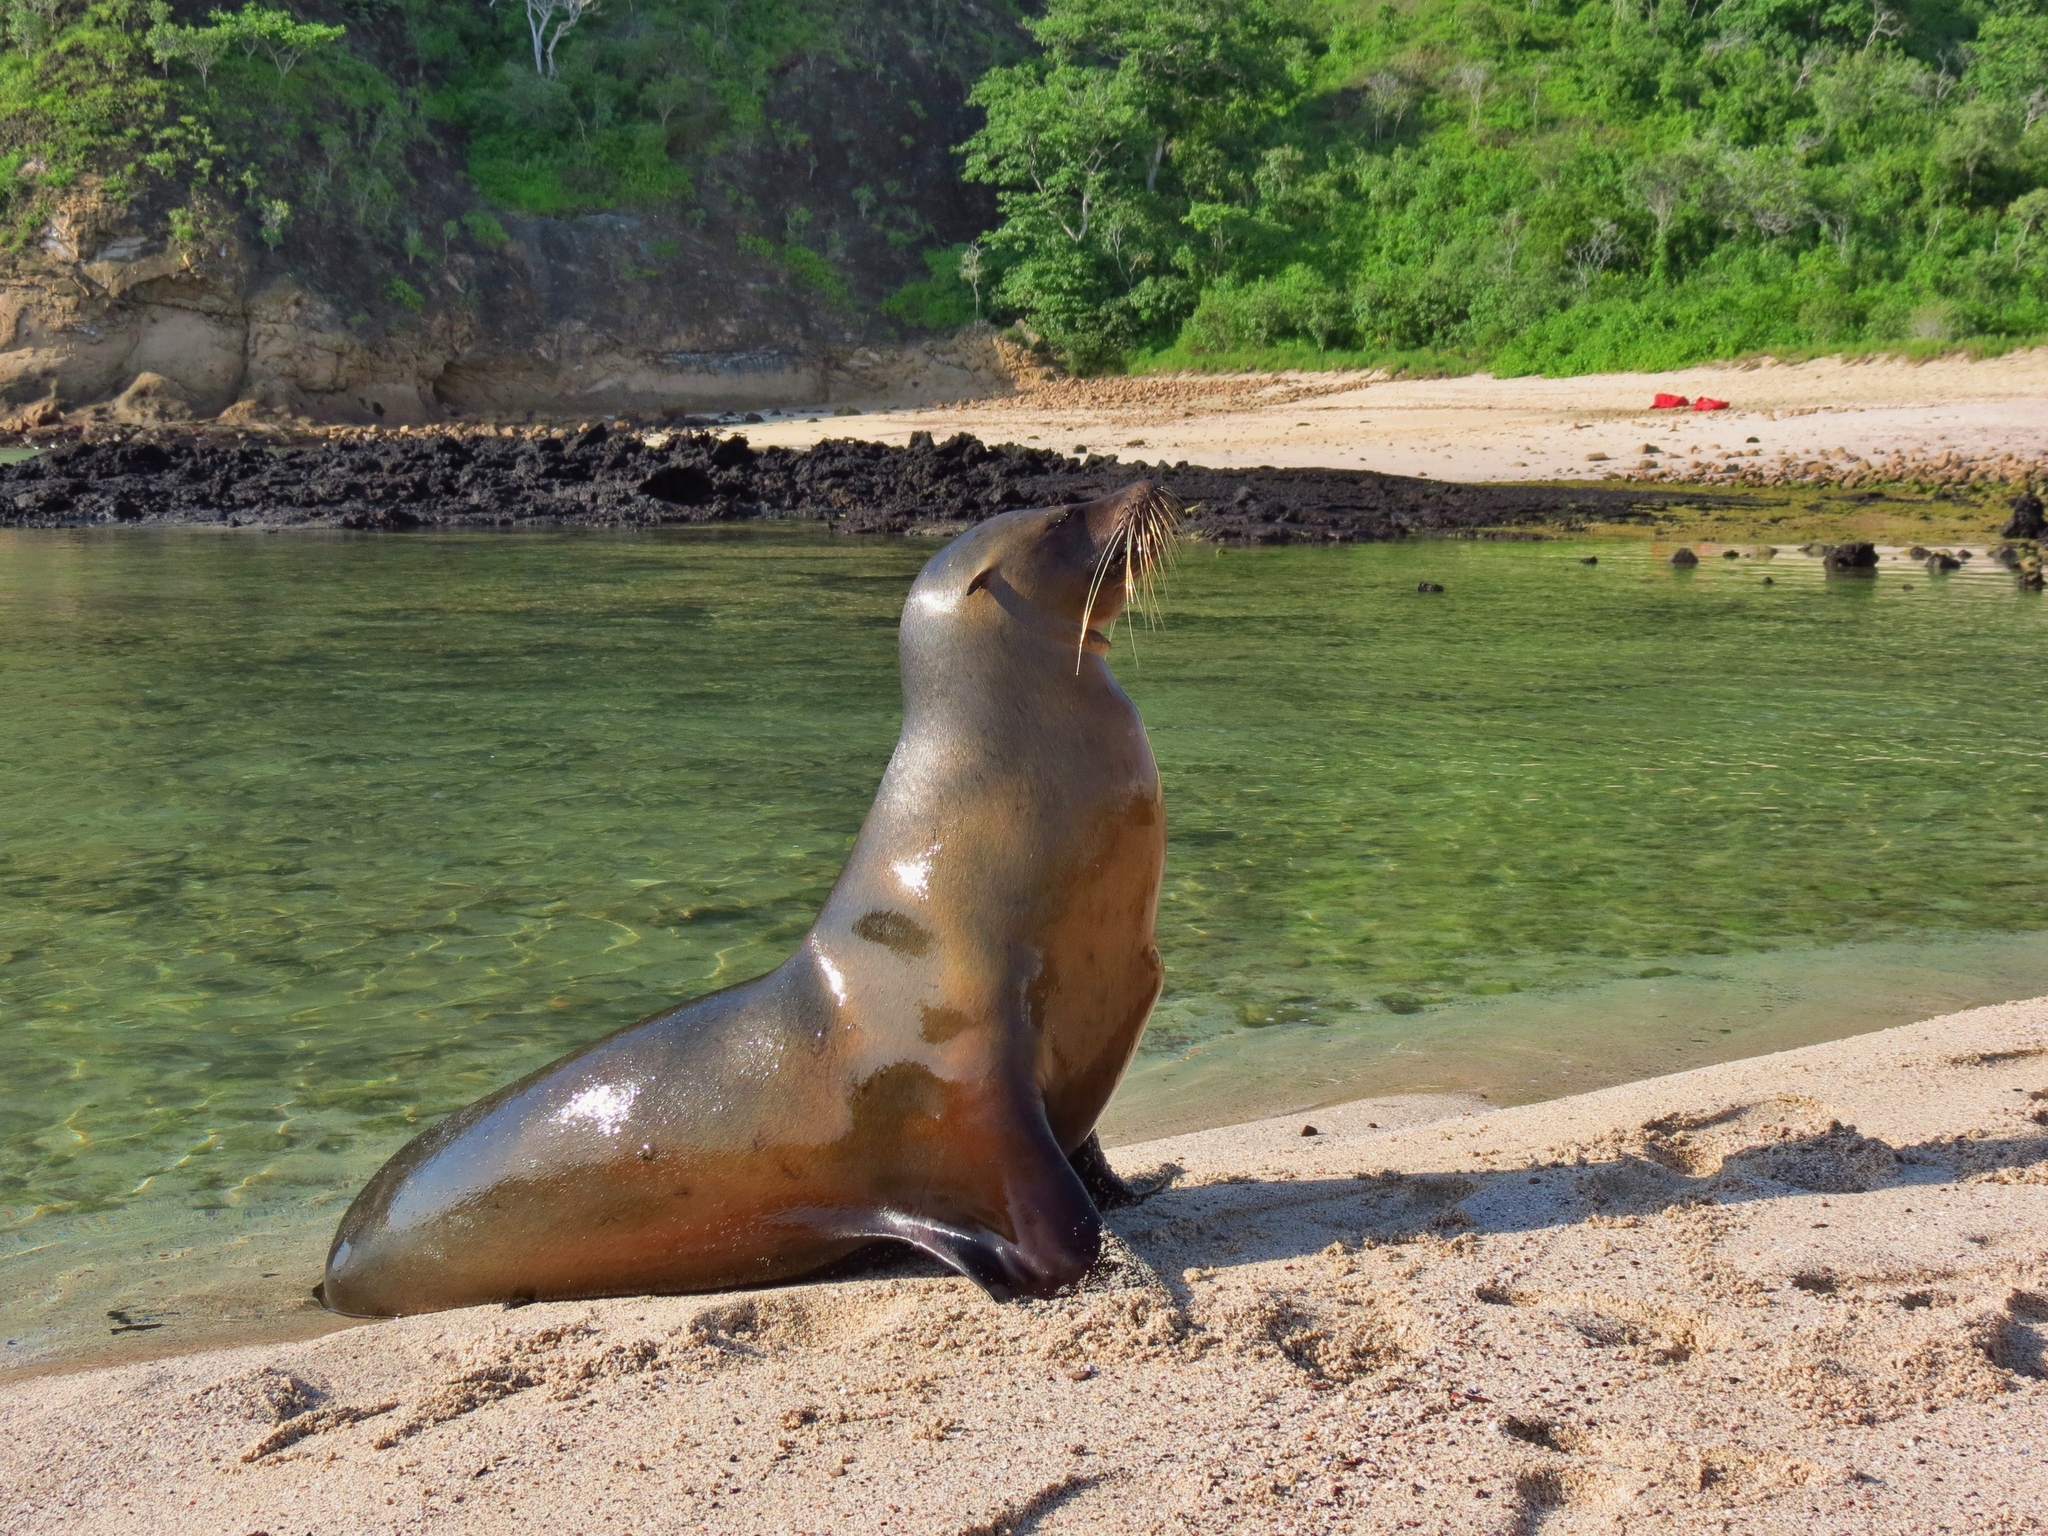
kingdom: Animalia
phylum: Chordata
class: Mammalia
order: Carnivora
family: Otariidae
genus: Zalophus
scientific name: Zalophus wollebaeki
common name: Galapagos sea lion
